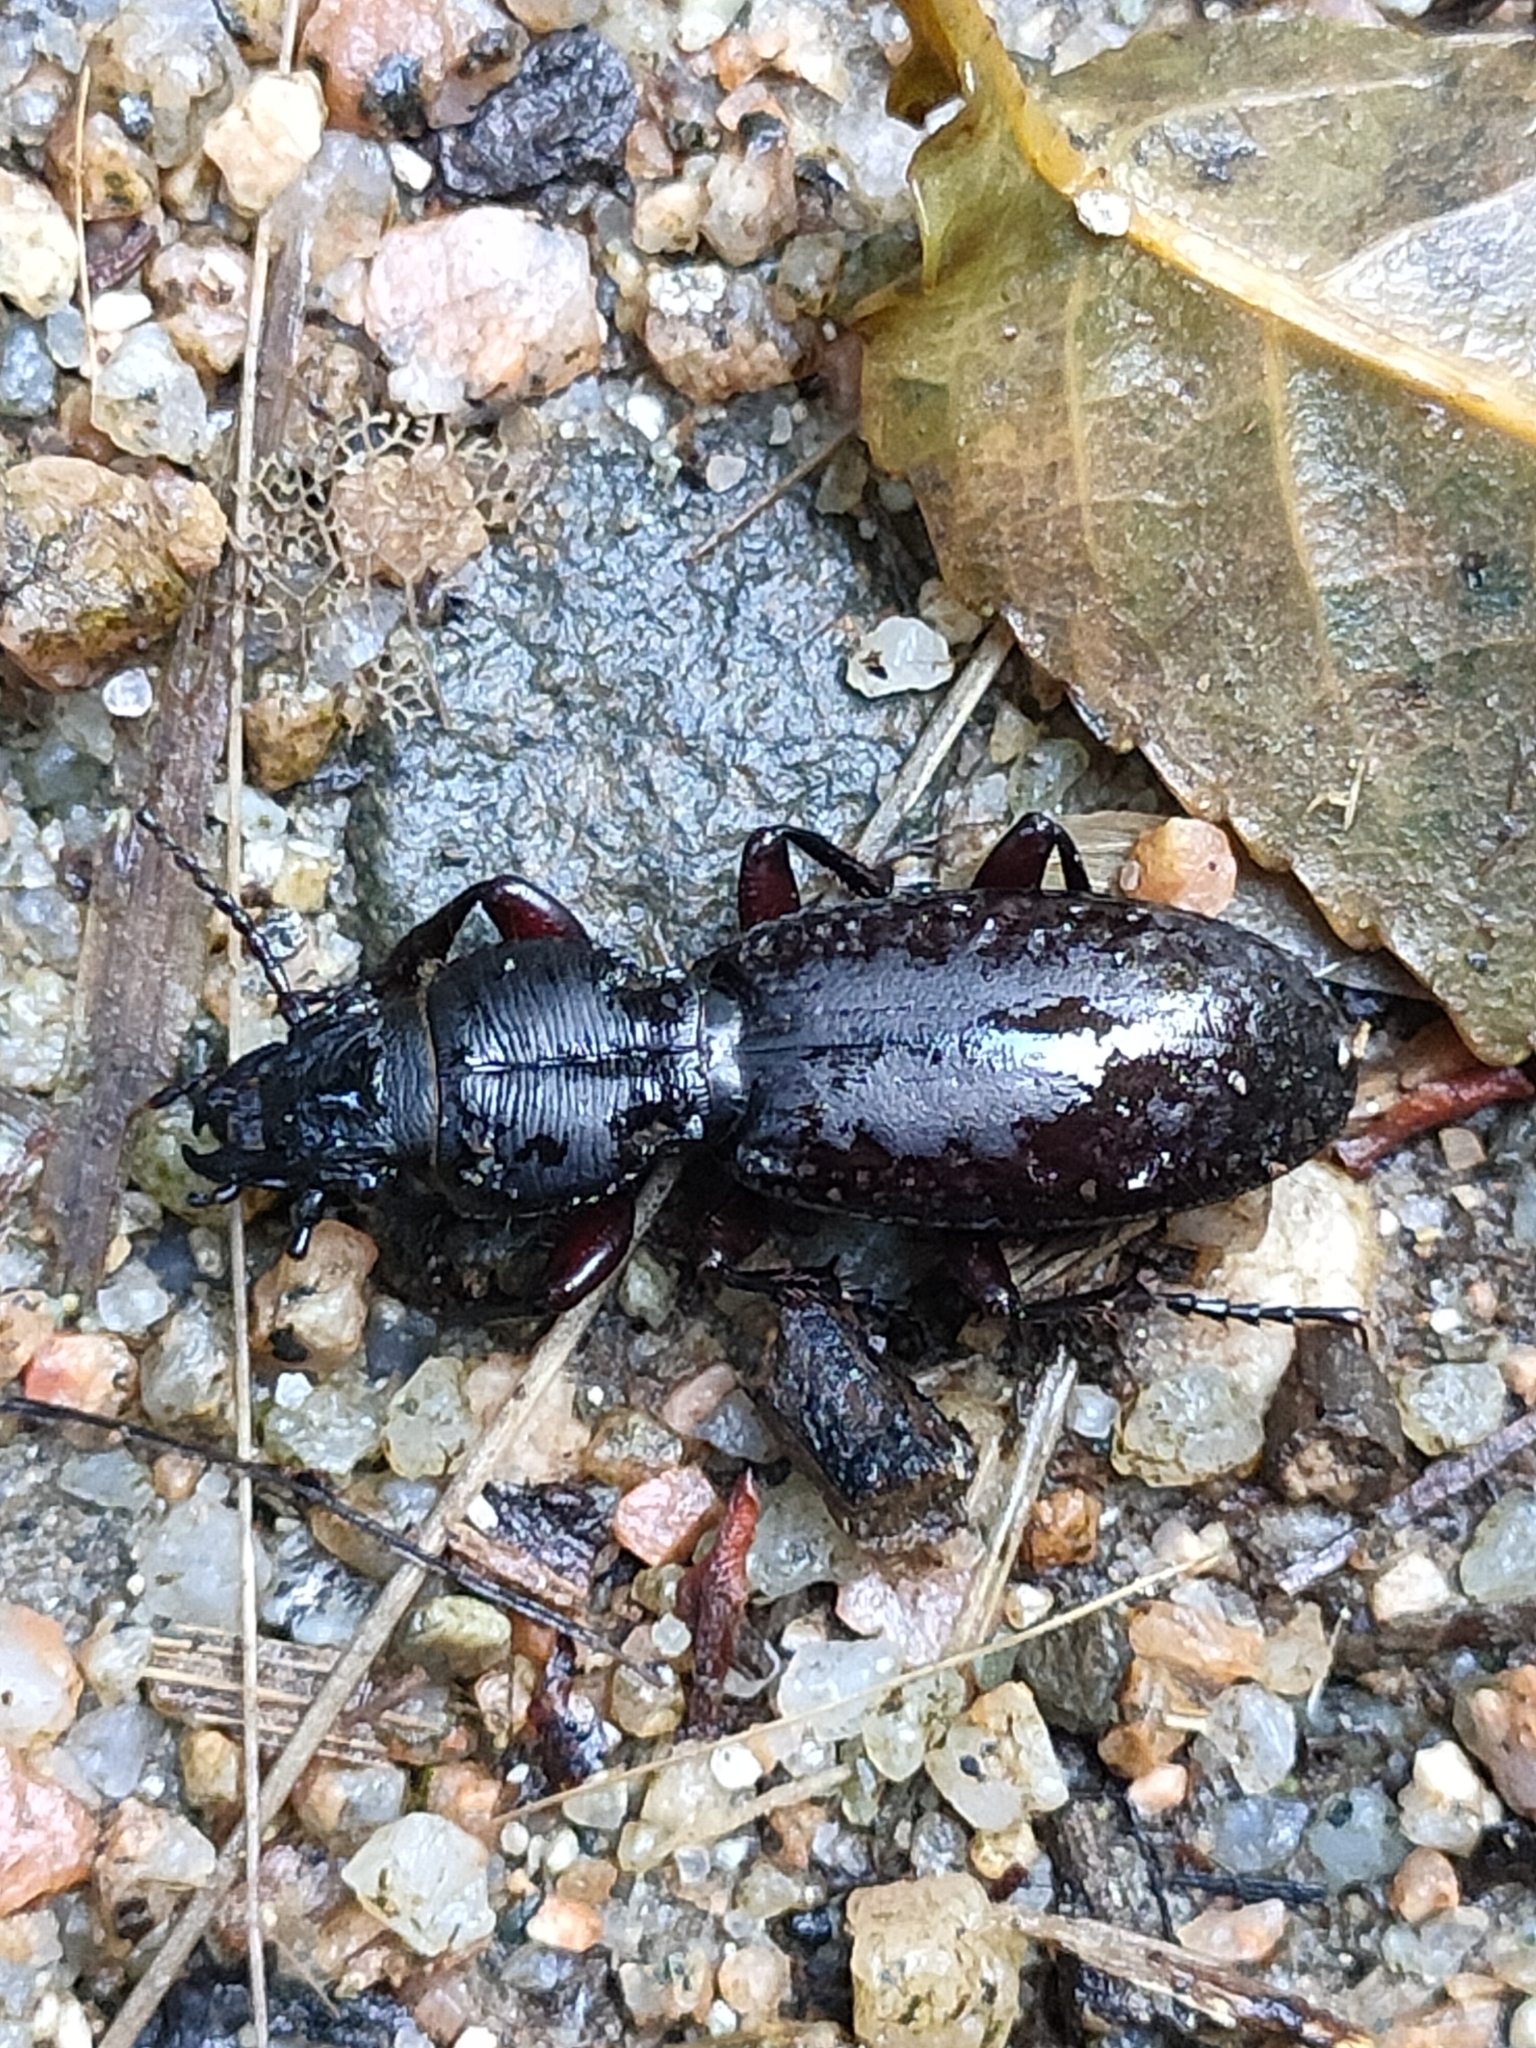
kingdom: Animalia
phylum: Arthropoda
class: Insecta
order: Coleoptera
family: Carabidae
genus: Mecodema
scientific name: Mecodema ducale
